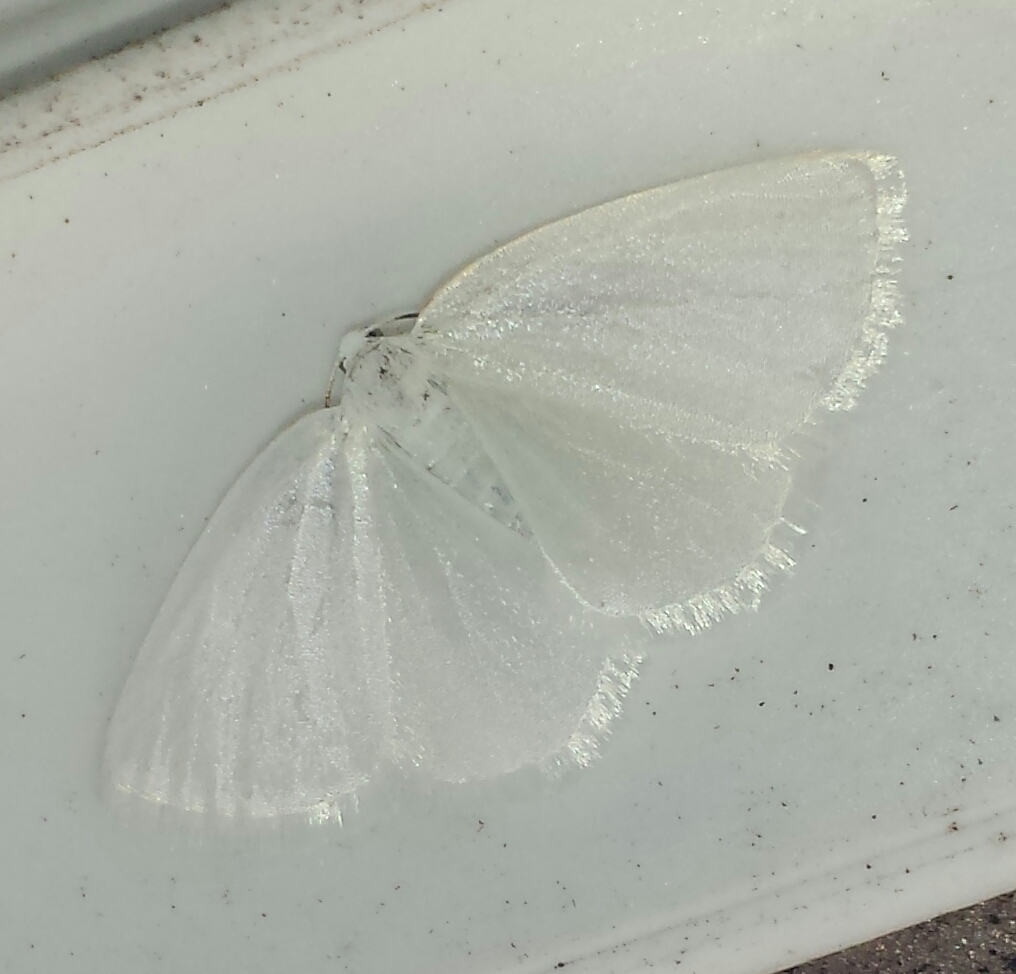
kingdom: Animalia
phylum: Arthropoda
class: Insecta
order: Lepidoptera
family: Geometridae
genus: Lomographa
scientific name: Lomographa vestaliata
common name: White spring moth
